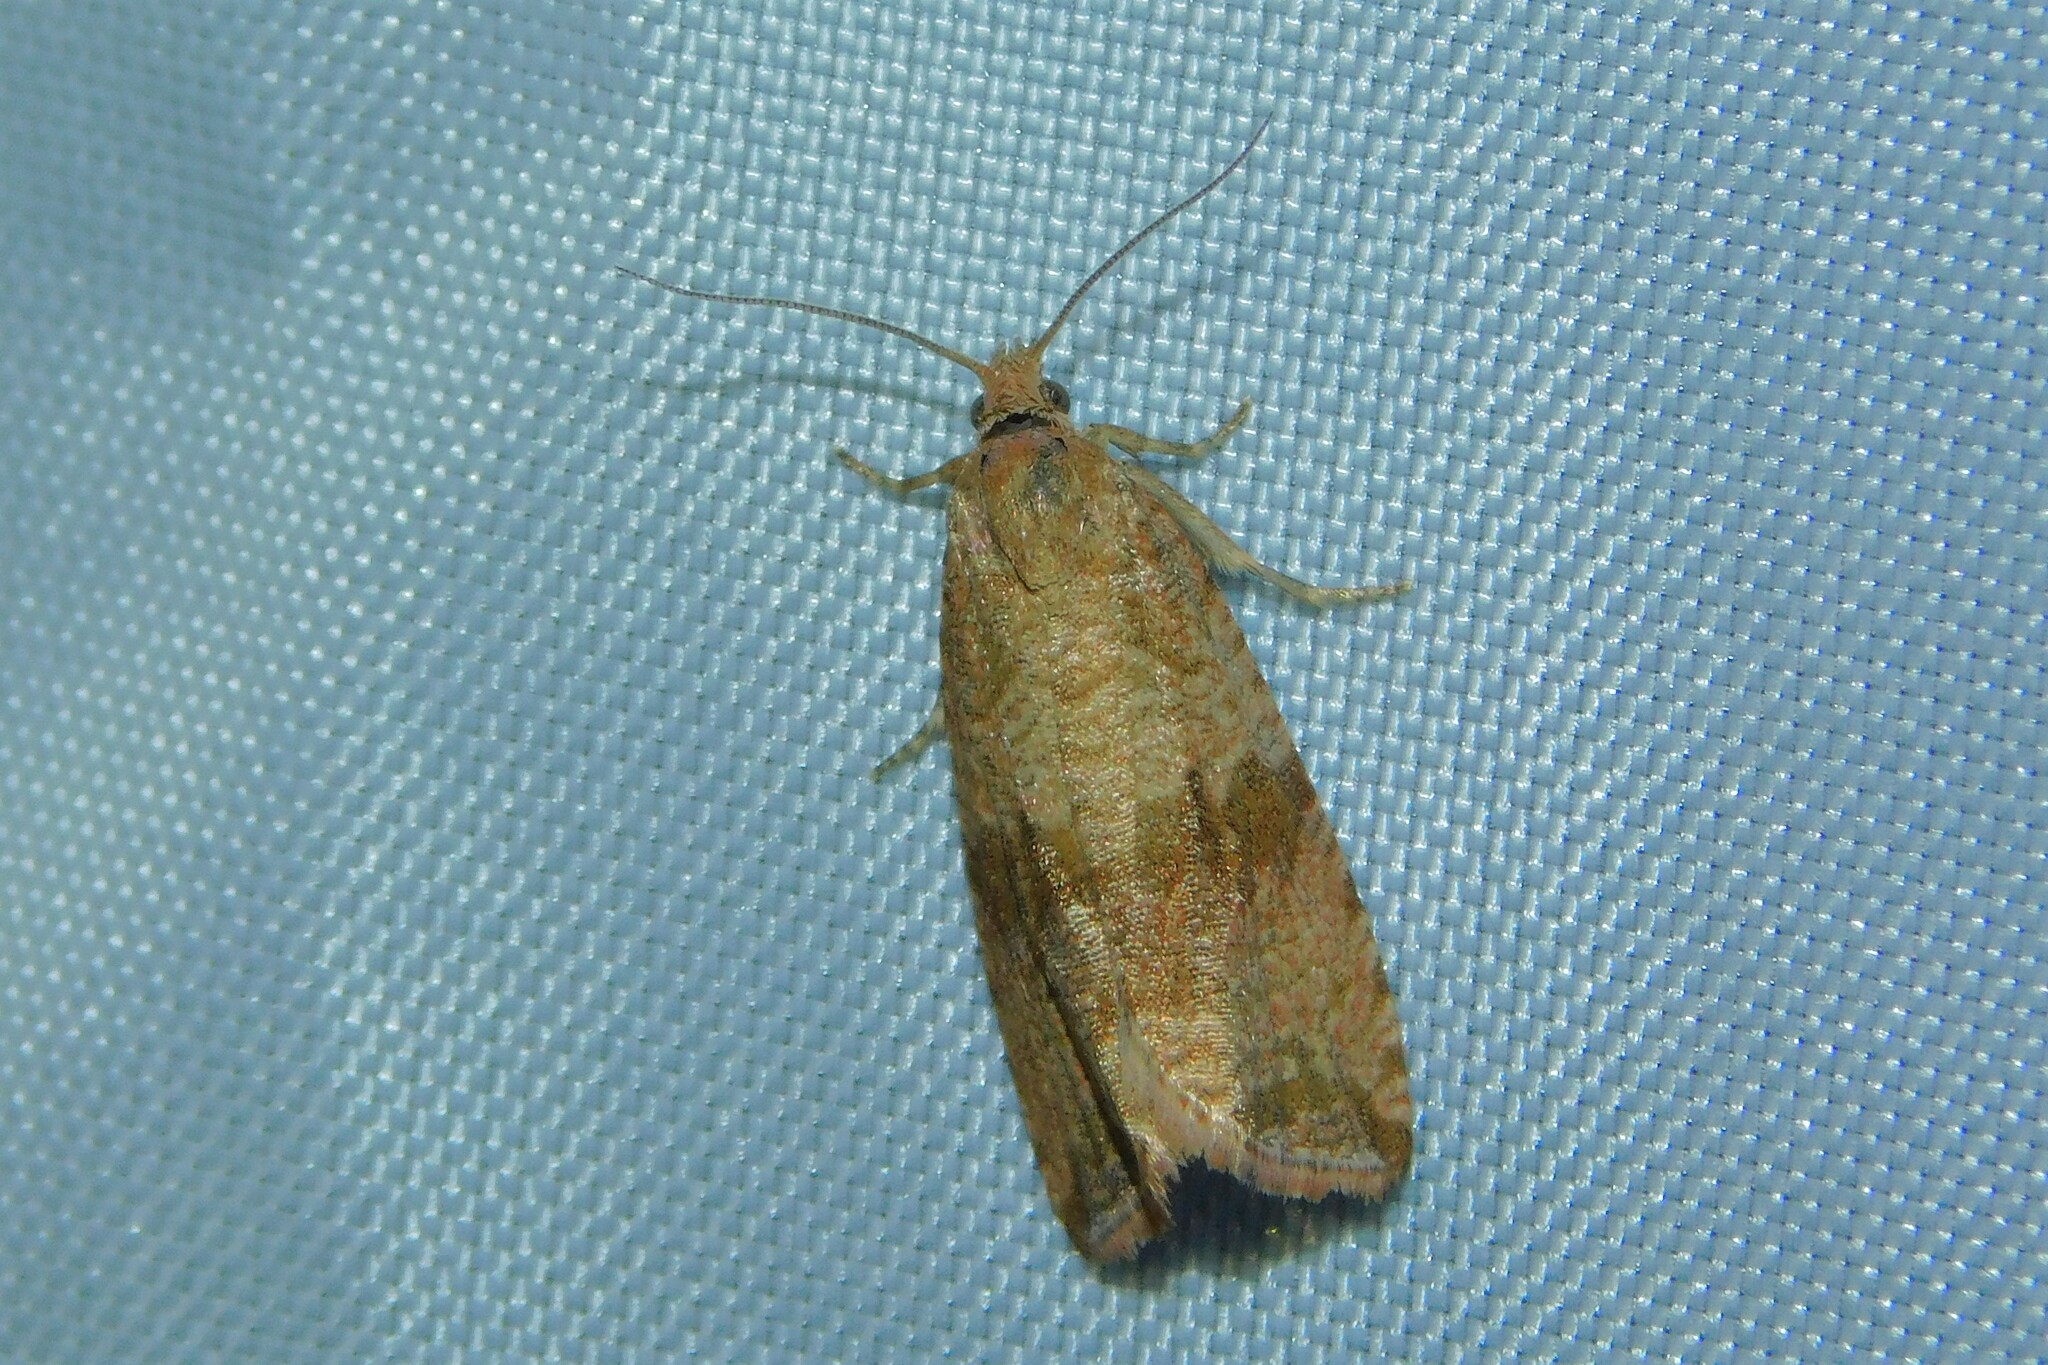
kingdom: Animalia
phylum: Arthropoda
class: Insecta
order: Lepidoptera
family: Tortricidae
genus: Celypha
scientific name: Celypha striana
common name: Barred marble
